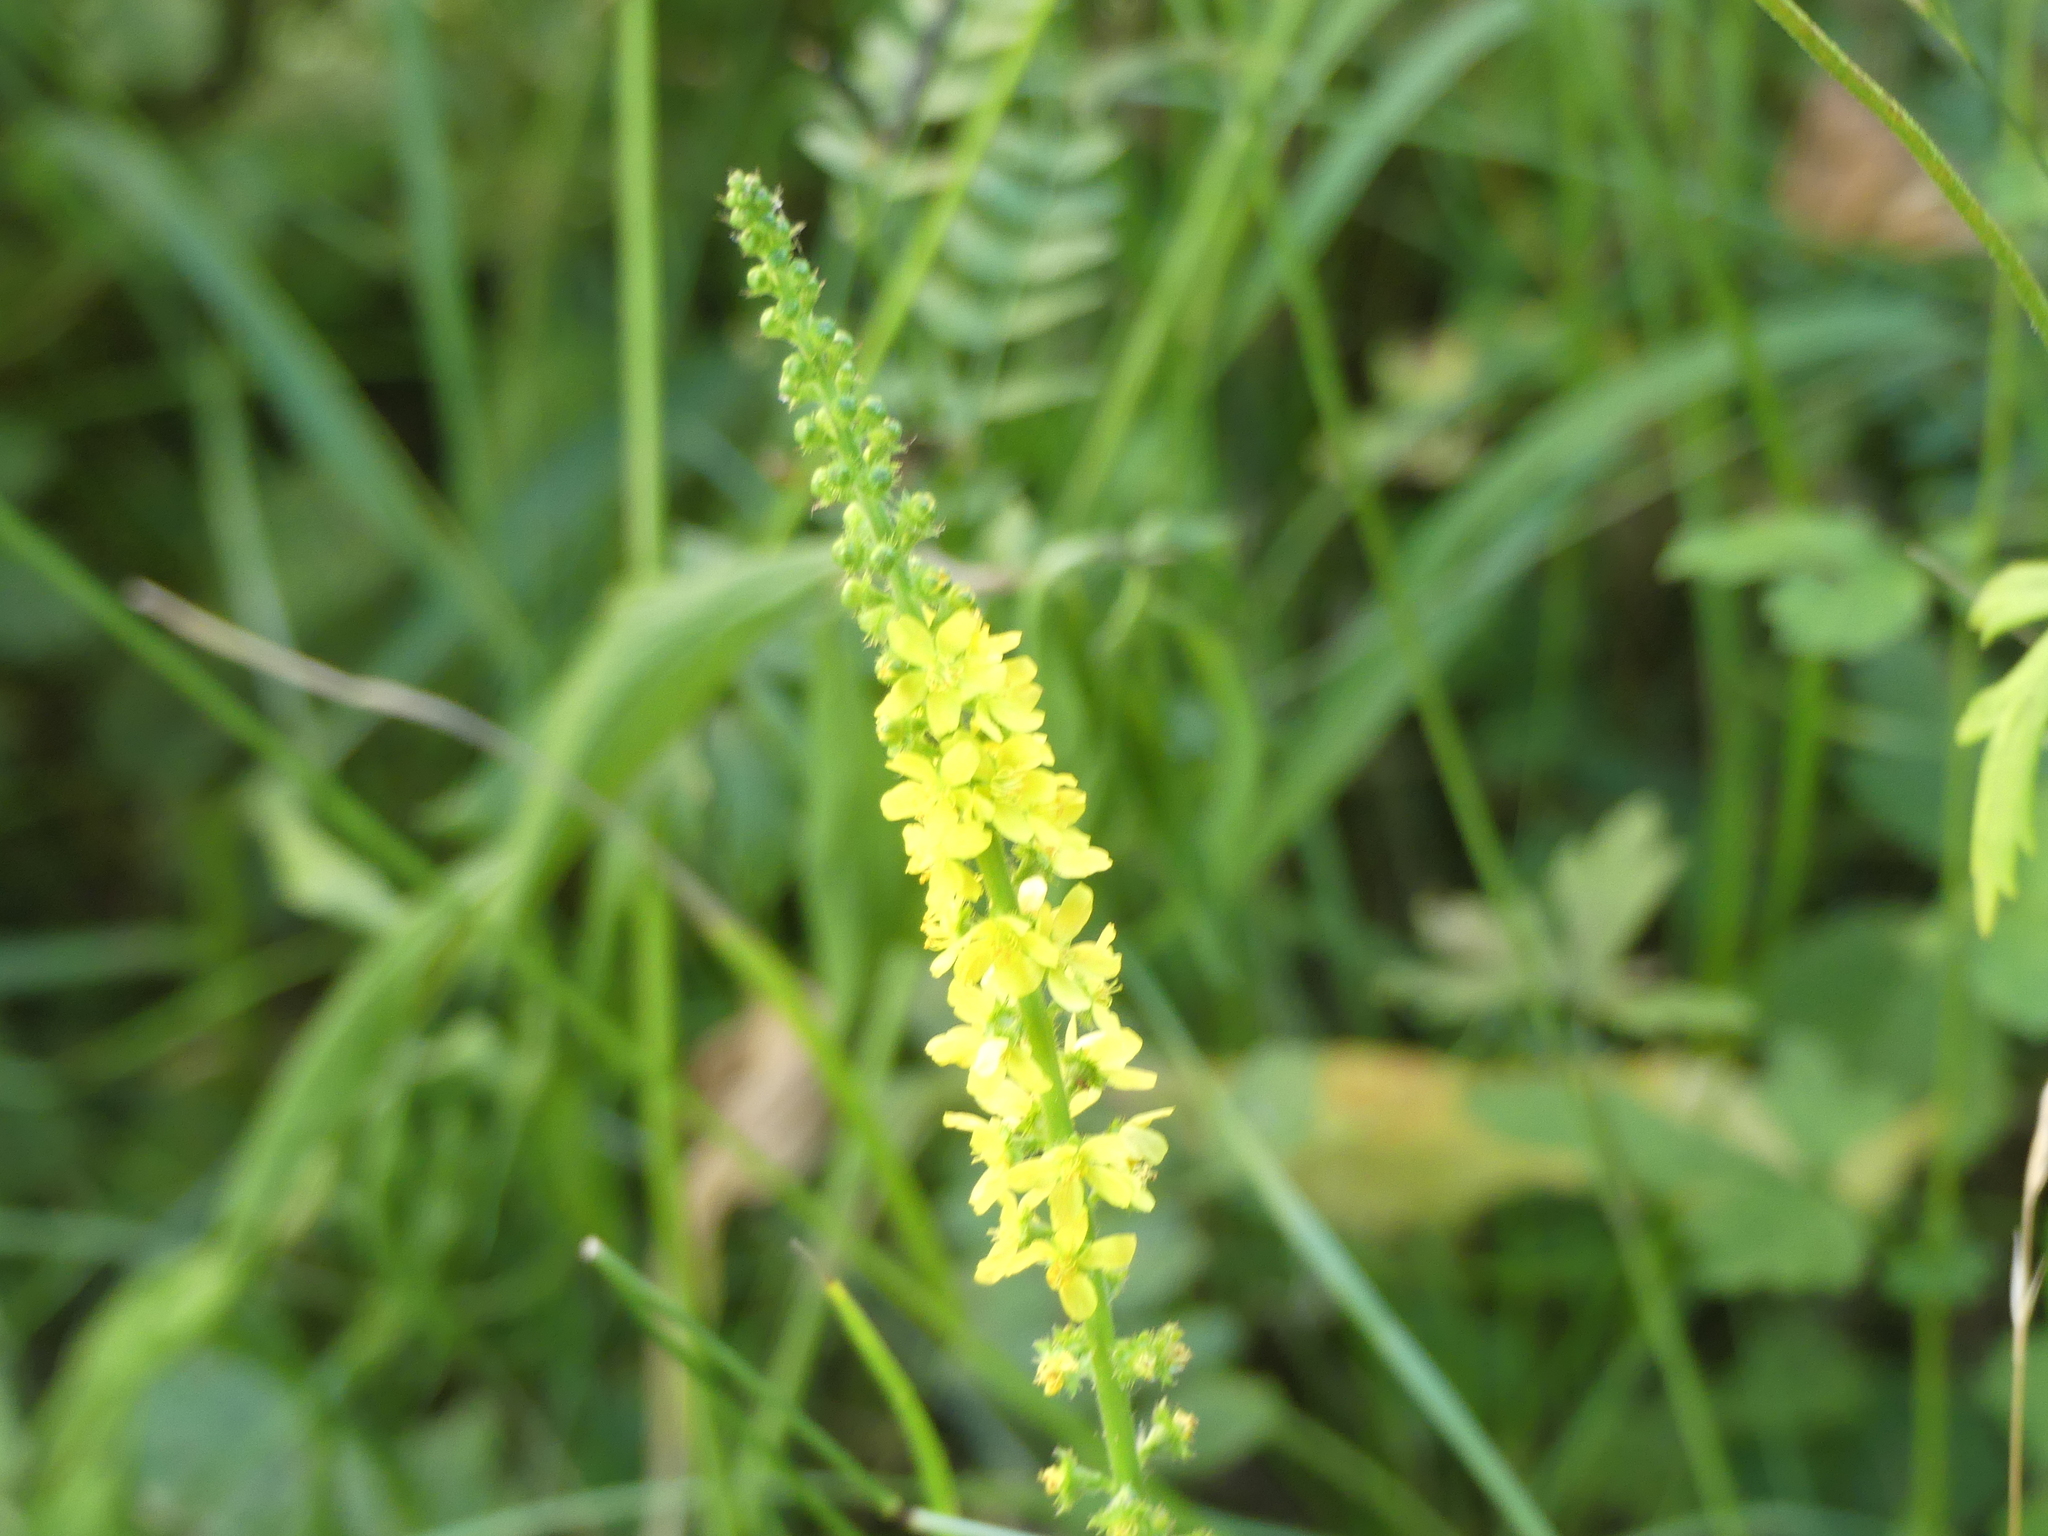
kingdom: Plantae
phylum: Tracheophyta
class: Magnoliopsida
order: Rosales
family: Rosaceae
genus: Agrimonia
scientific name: Agrimonia eupatoria
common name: Agrimony
